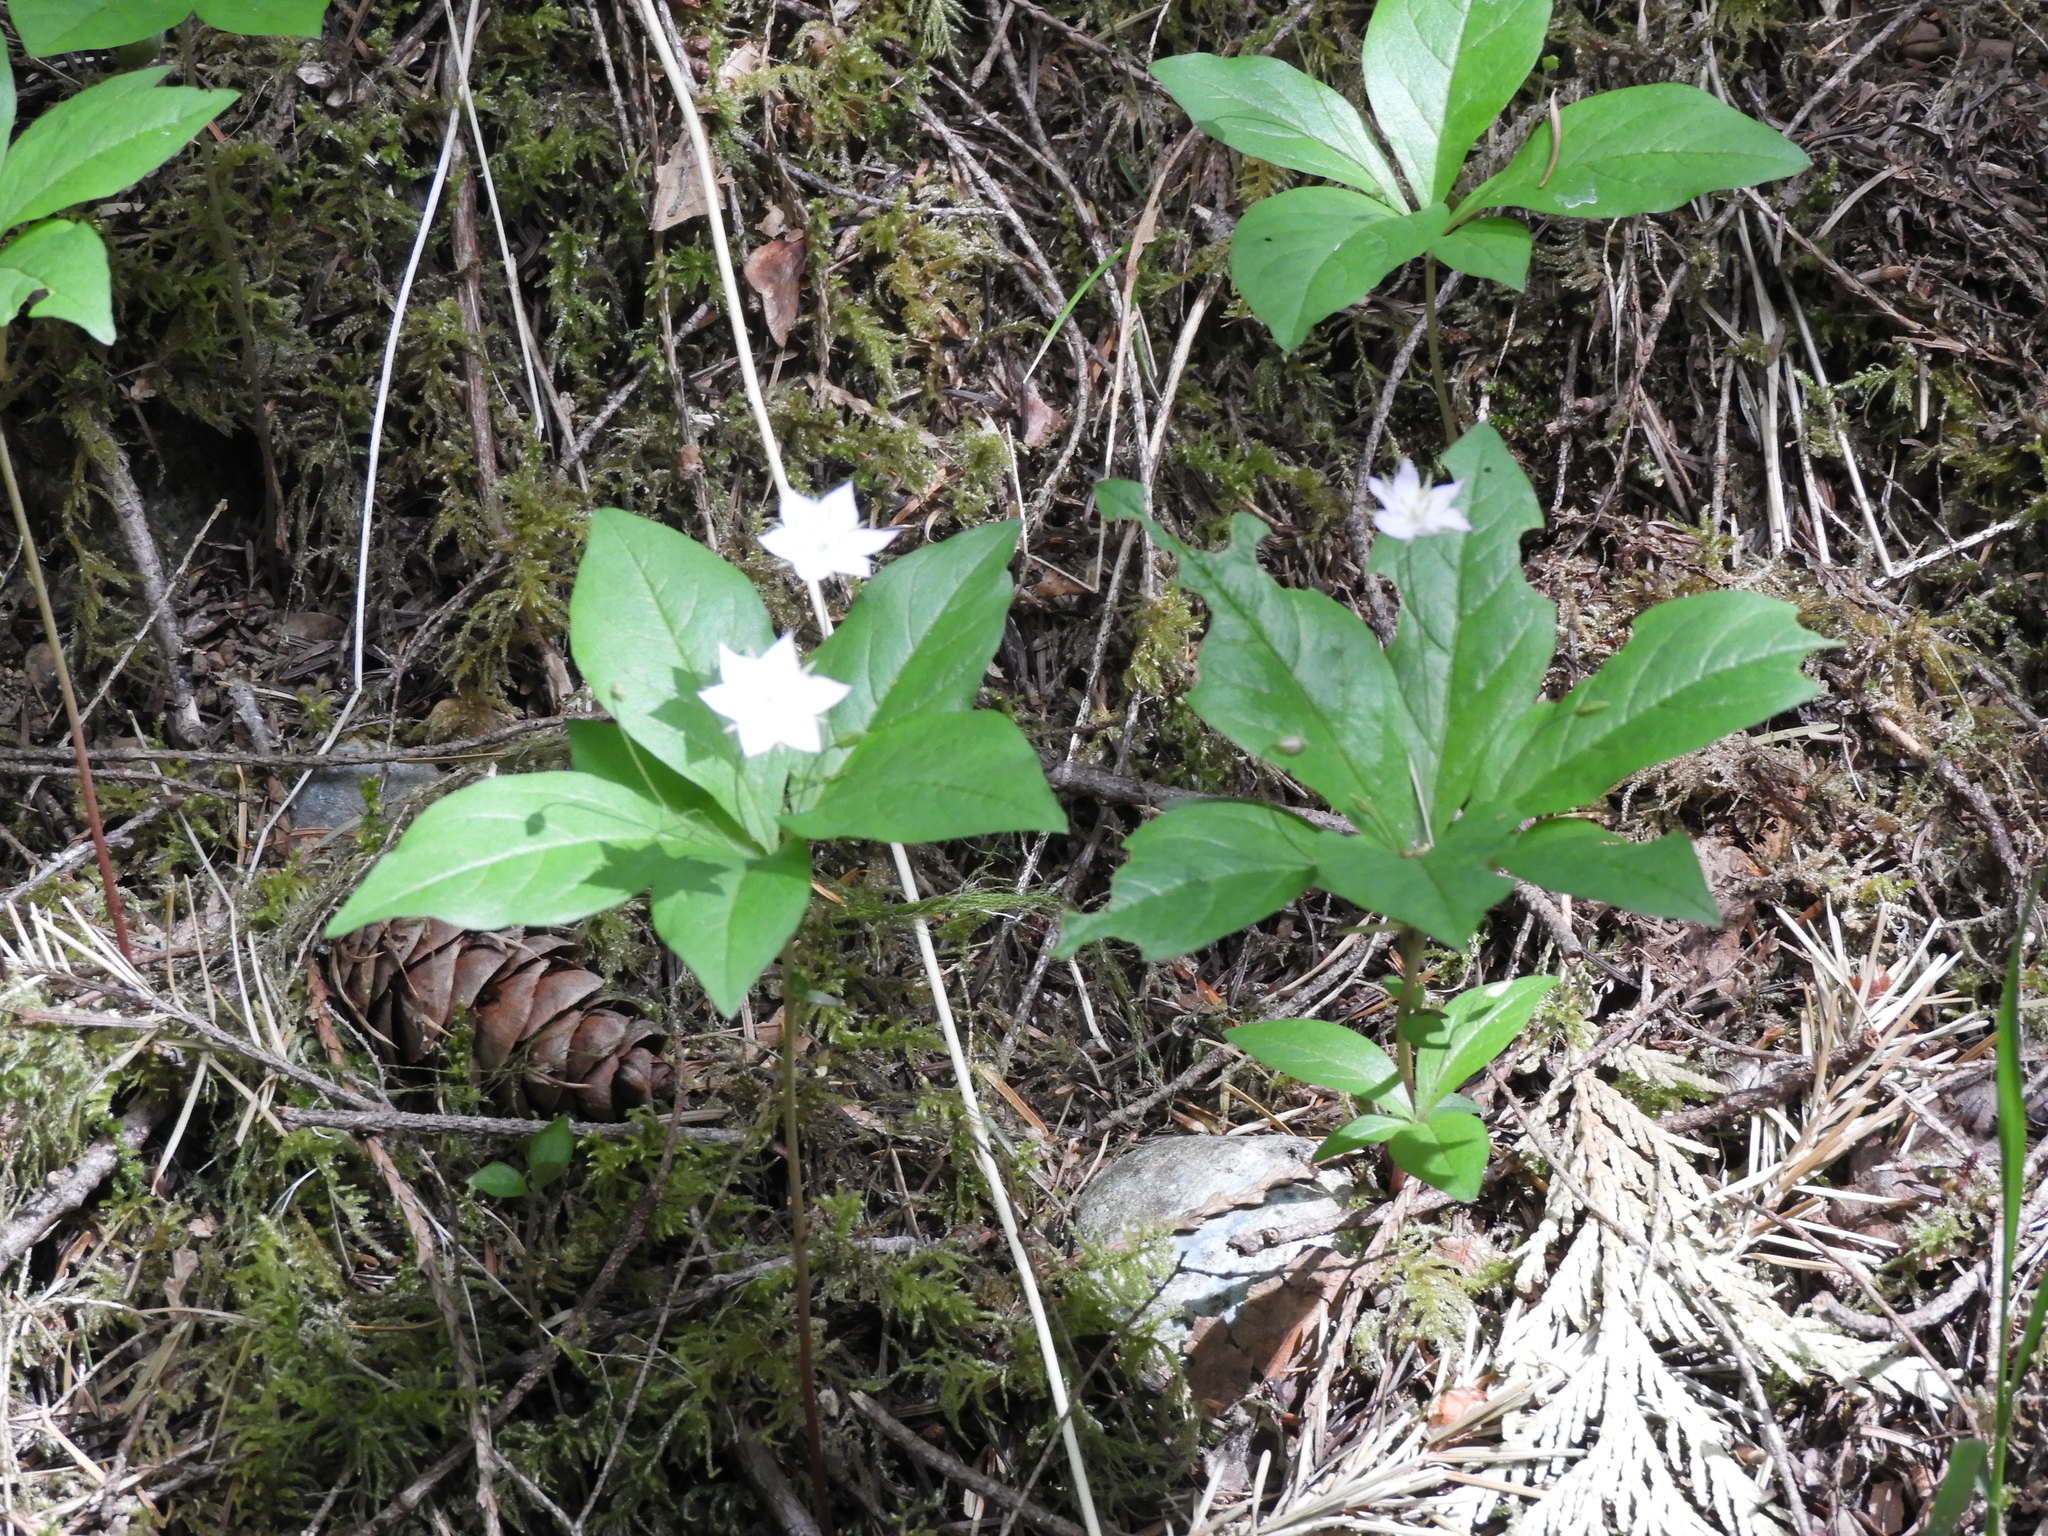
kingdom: Plantae
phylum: Tracheophyta
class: Magnoliopsida
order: Ericales
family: Primulaceae
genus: Lysimachia
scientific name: Lysimachia latifolia
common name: Pacific starflower
